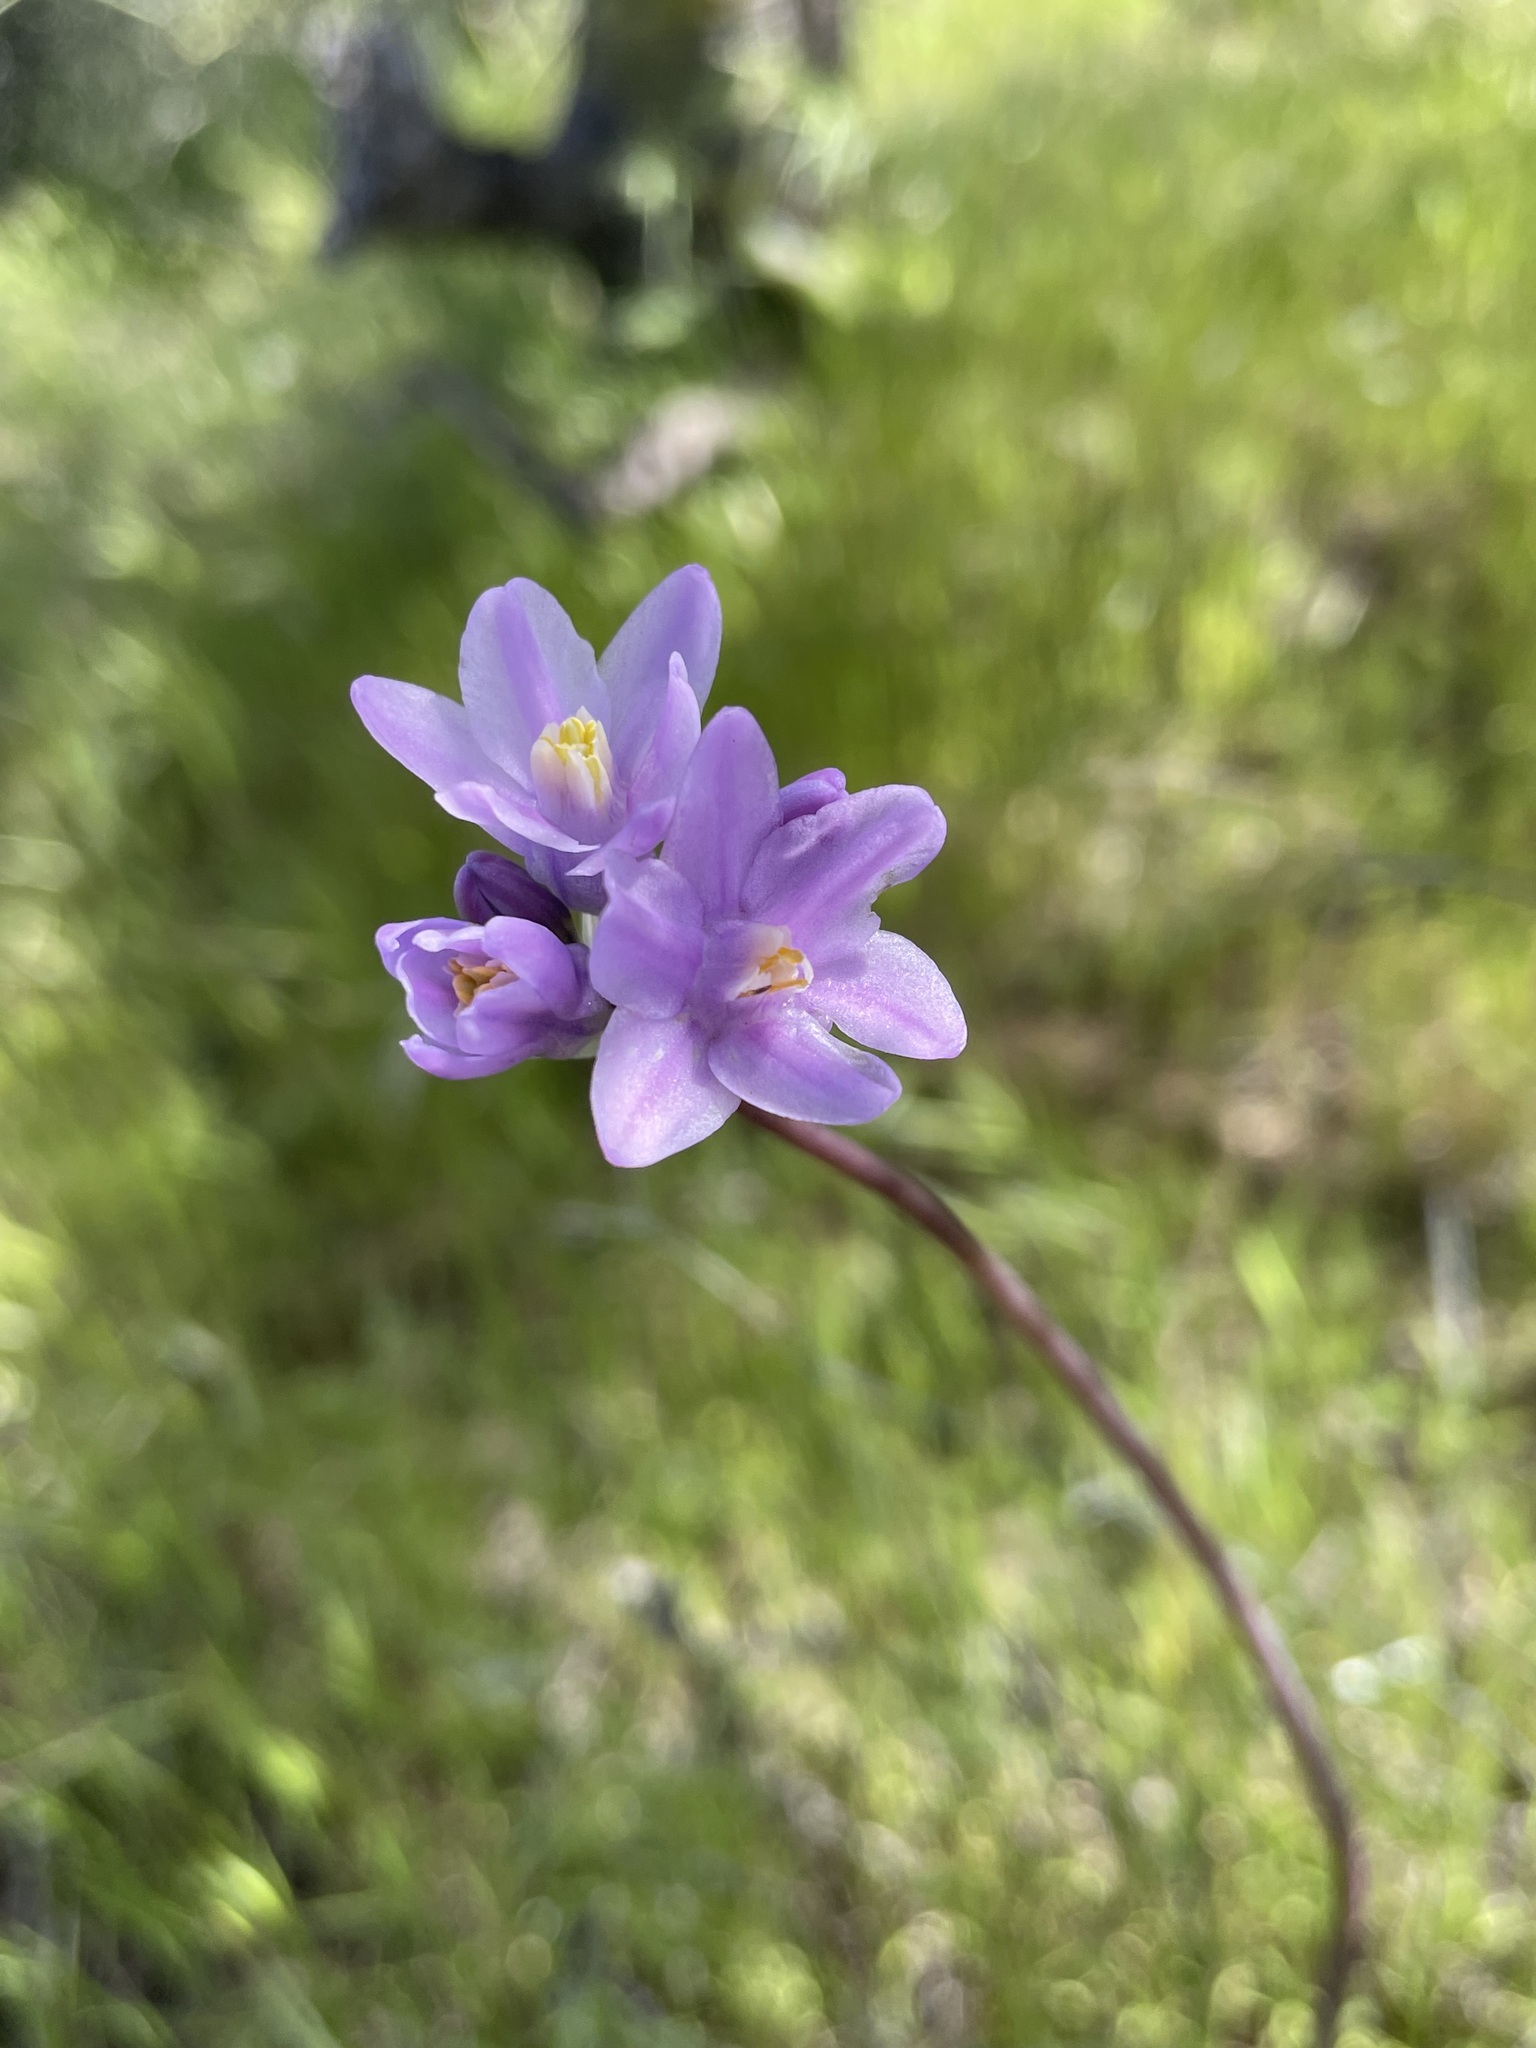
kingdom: Plantae
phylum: Tracheophyta
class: Liliopsida
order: Asparagales
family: Asparagaceae
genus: Dipterostemon
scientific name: Dipterostemon capitatus
